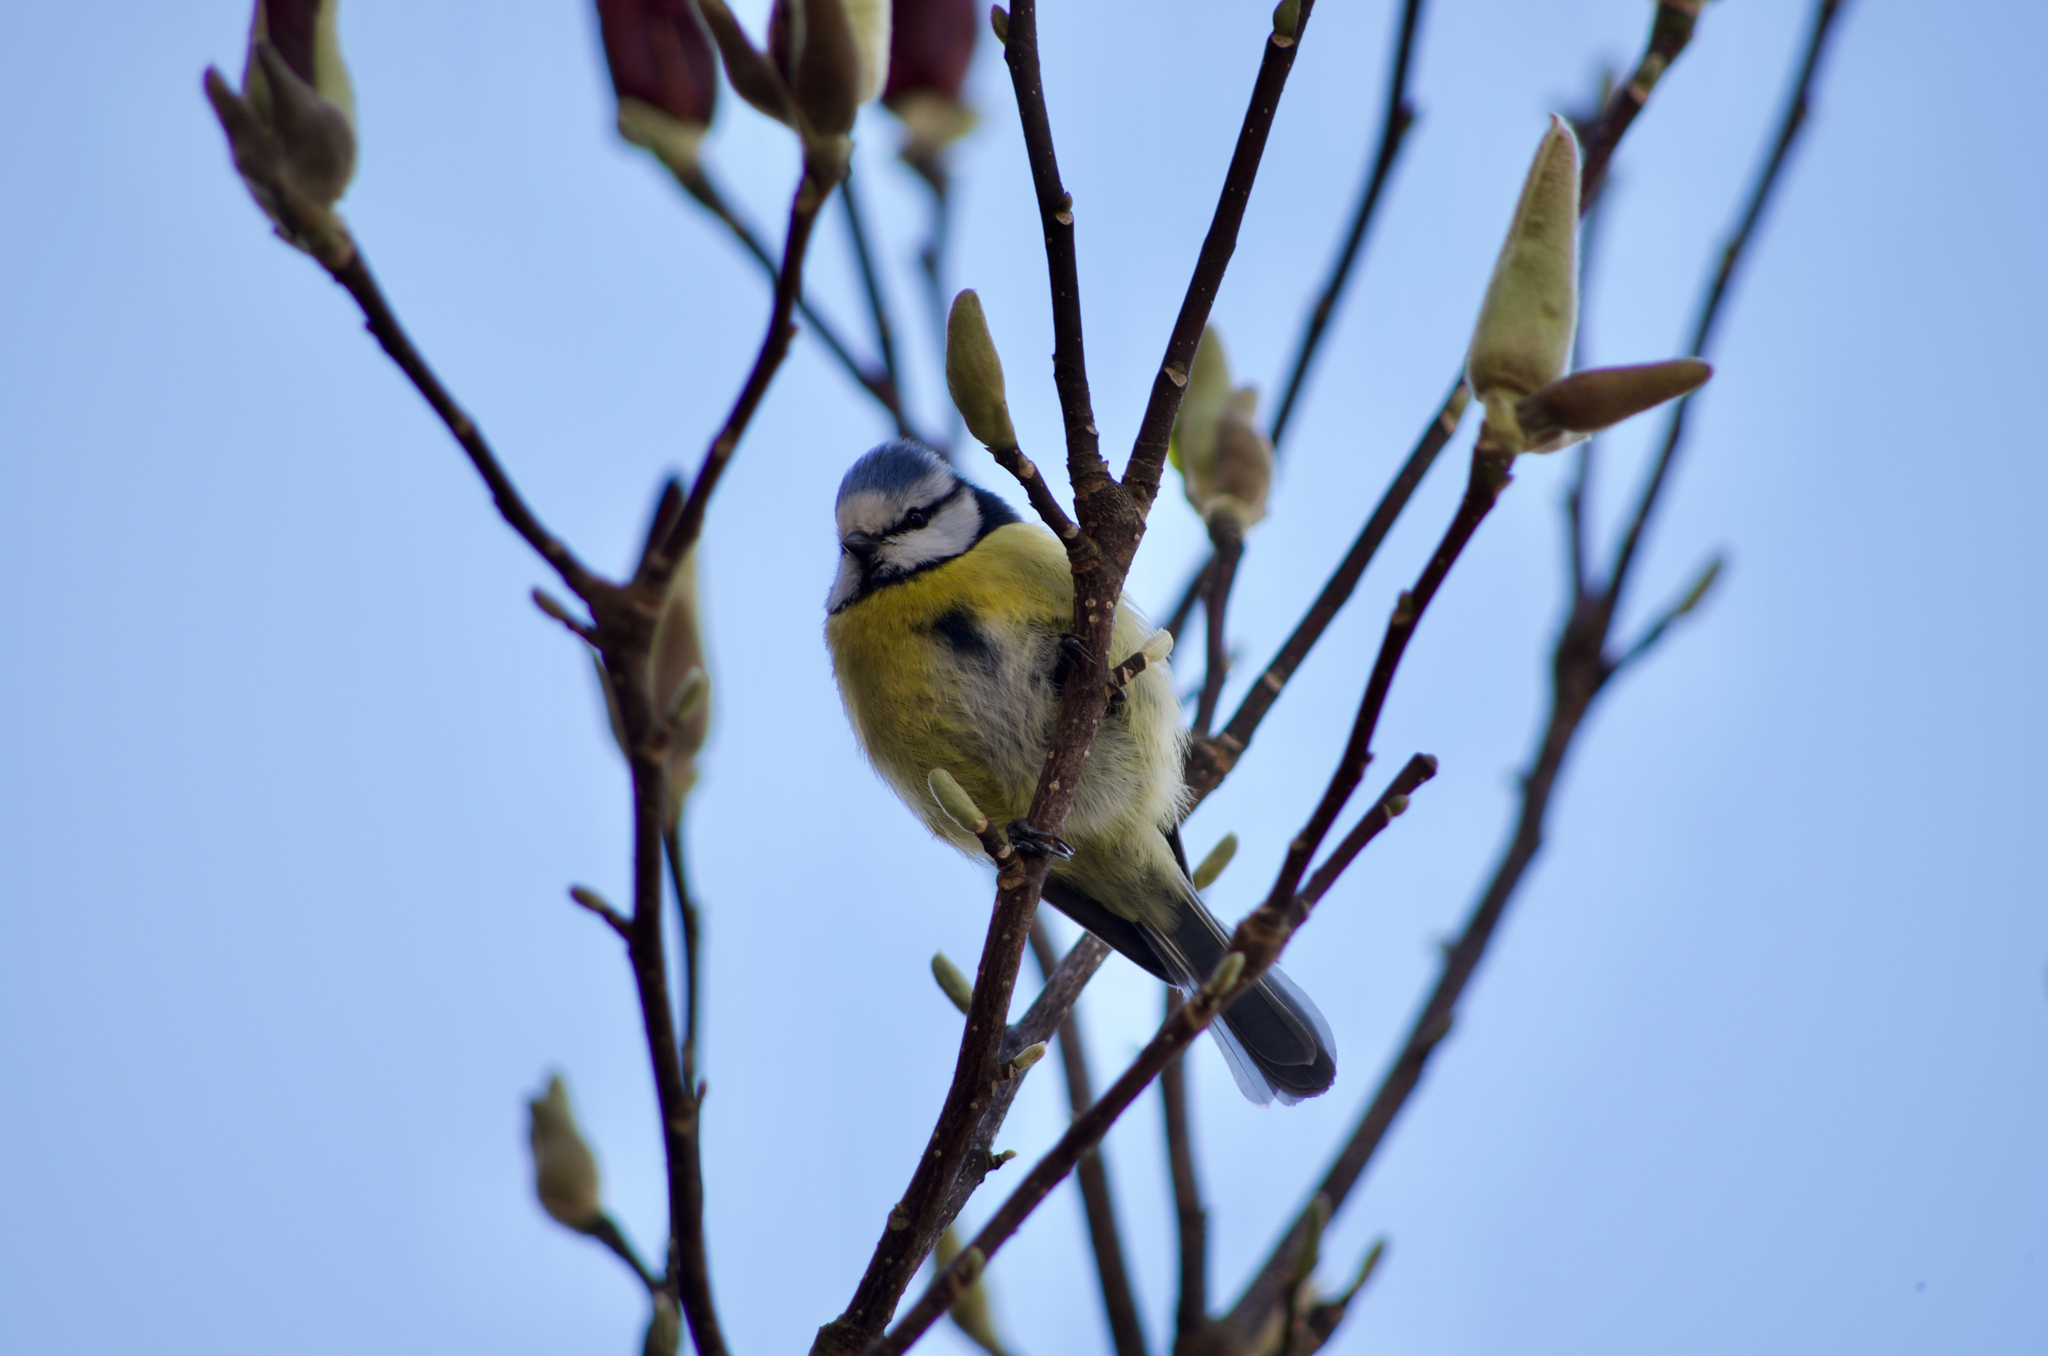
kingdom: Animalia
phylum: Chordata
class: Aves
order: Passeriformes
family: Paridae
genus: Cyanistes
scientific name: Cyanistes caeruleus
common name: Eurasian blue tit
